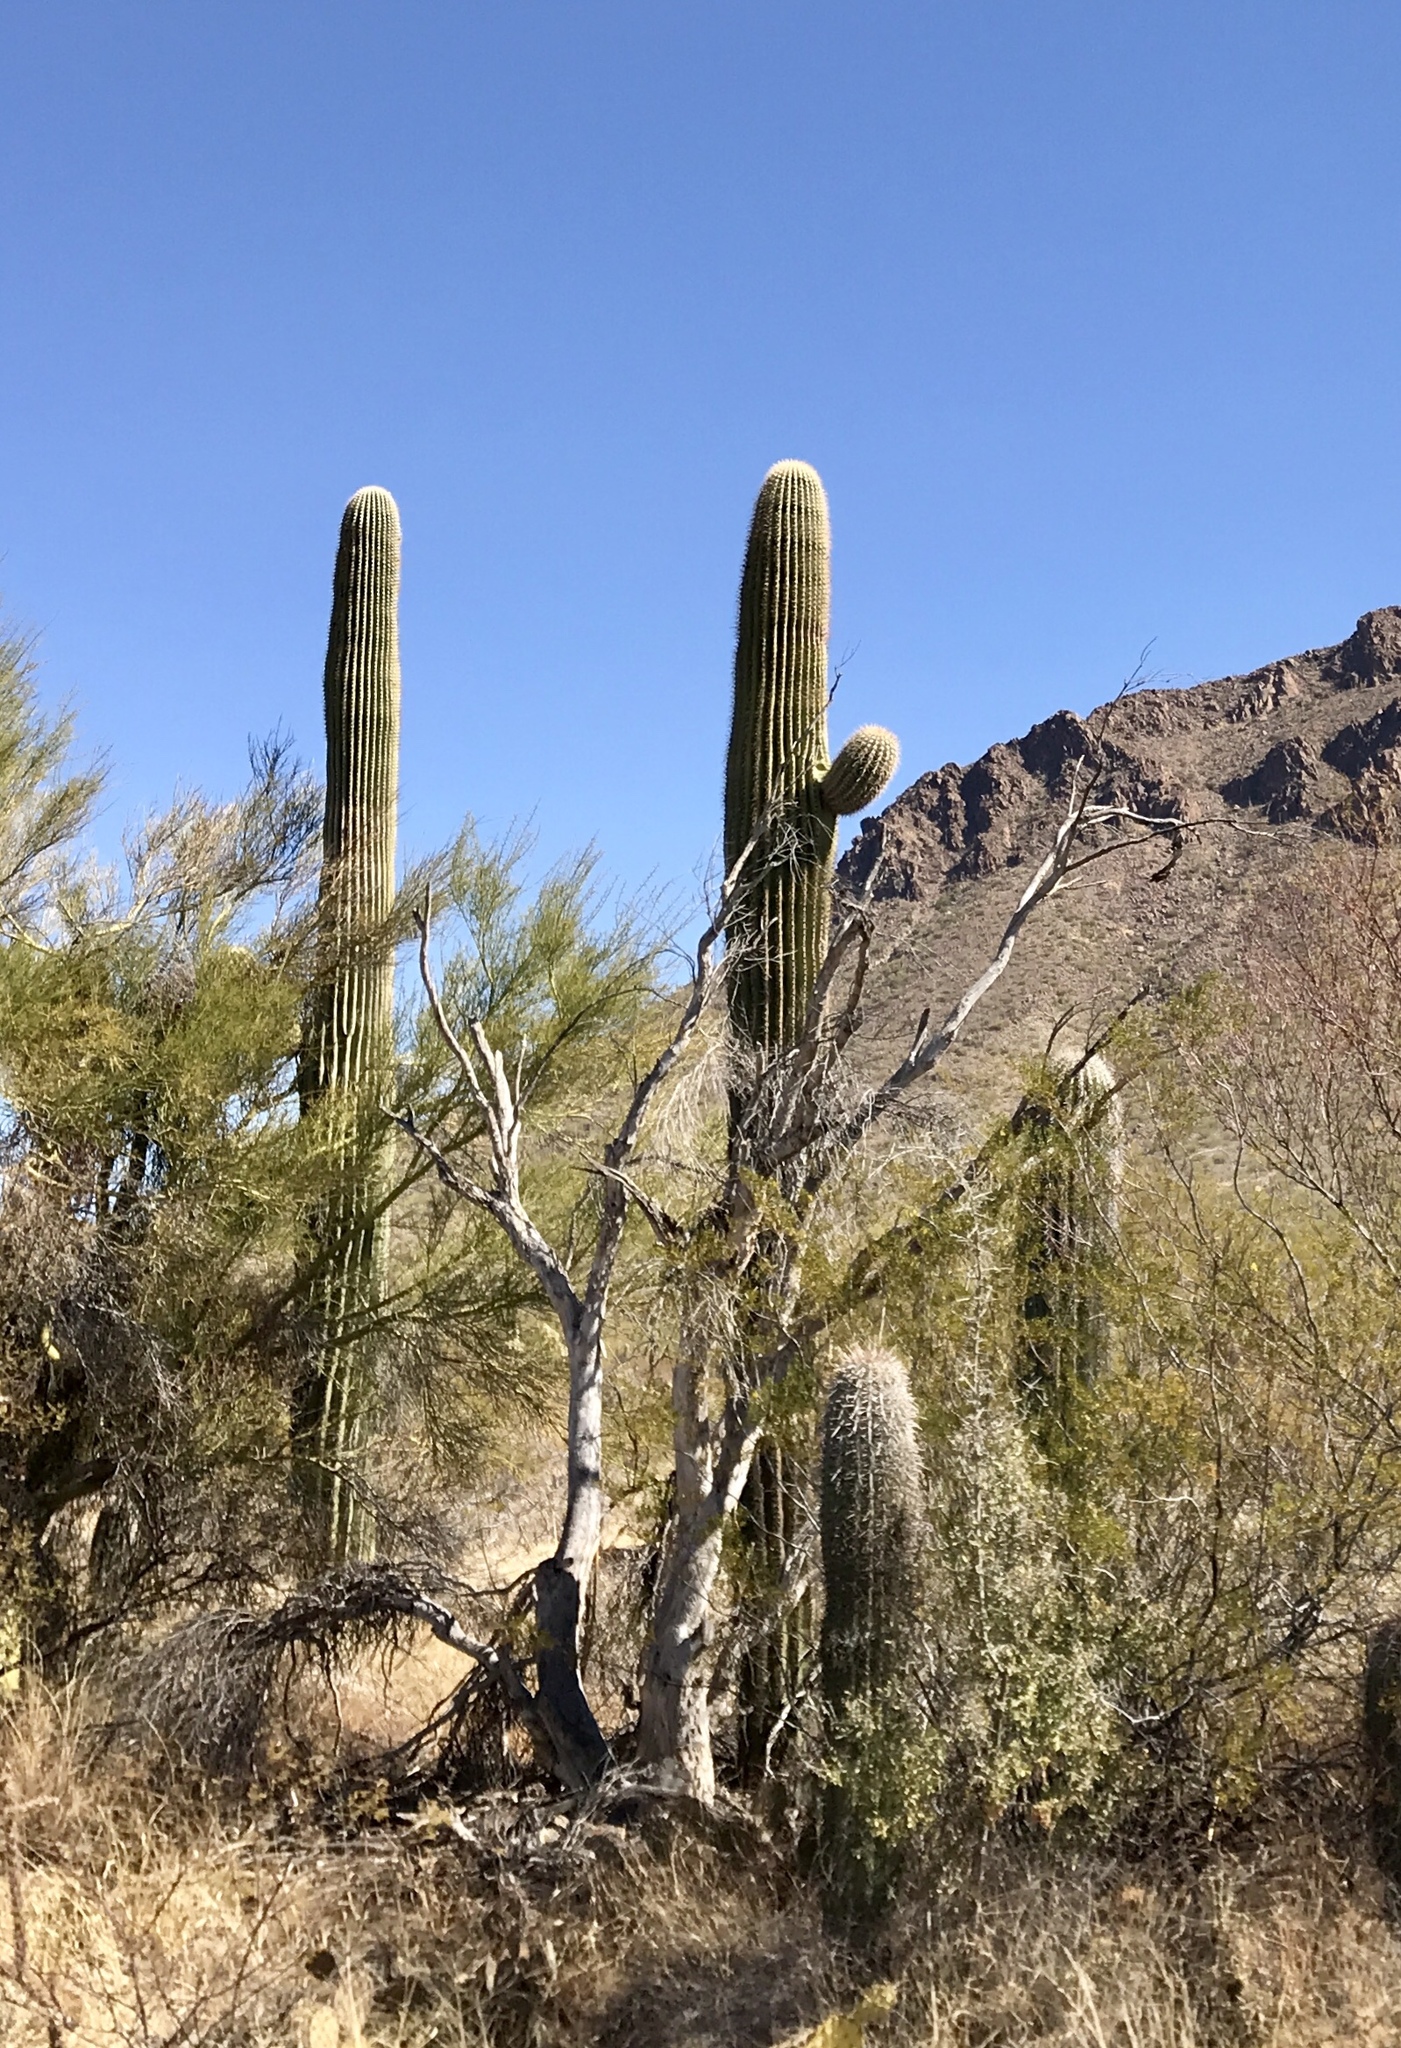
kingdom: Plantae
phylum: Tracheophyta
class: Magnoliopsida
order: Caryophyllales
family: Cactaceae
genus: Carnegiea
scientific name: Carnegiea gigantea
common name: Saguaro
